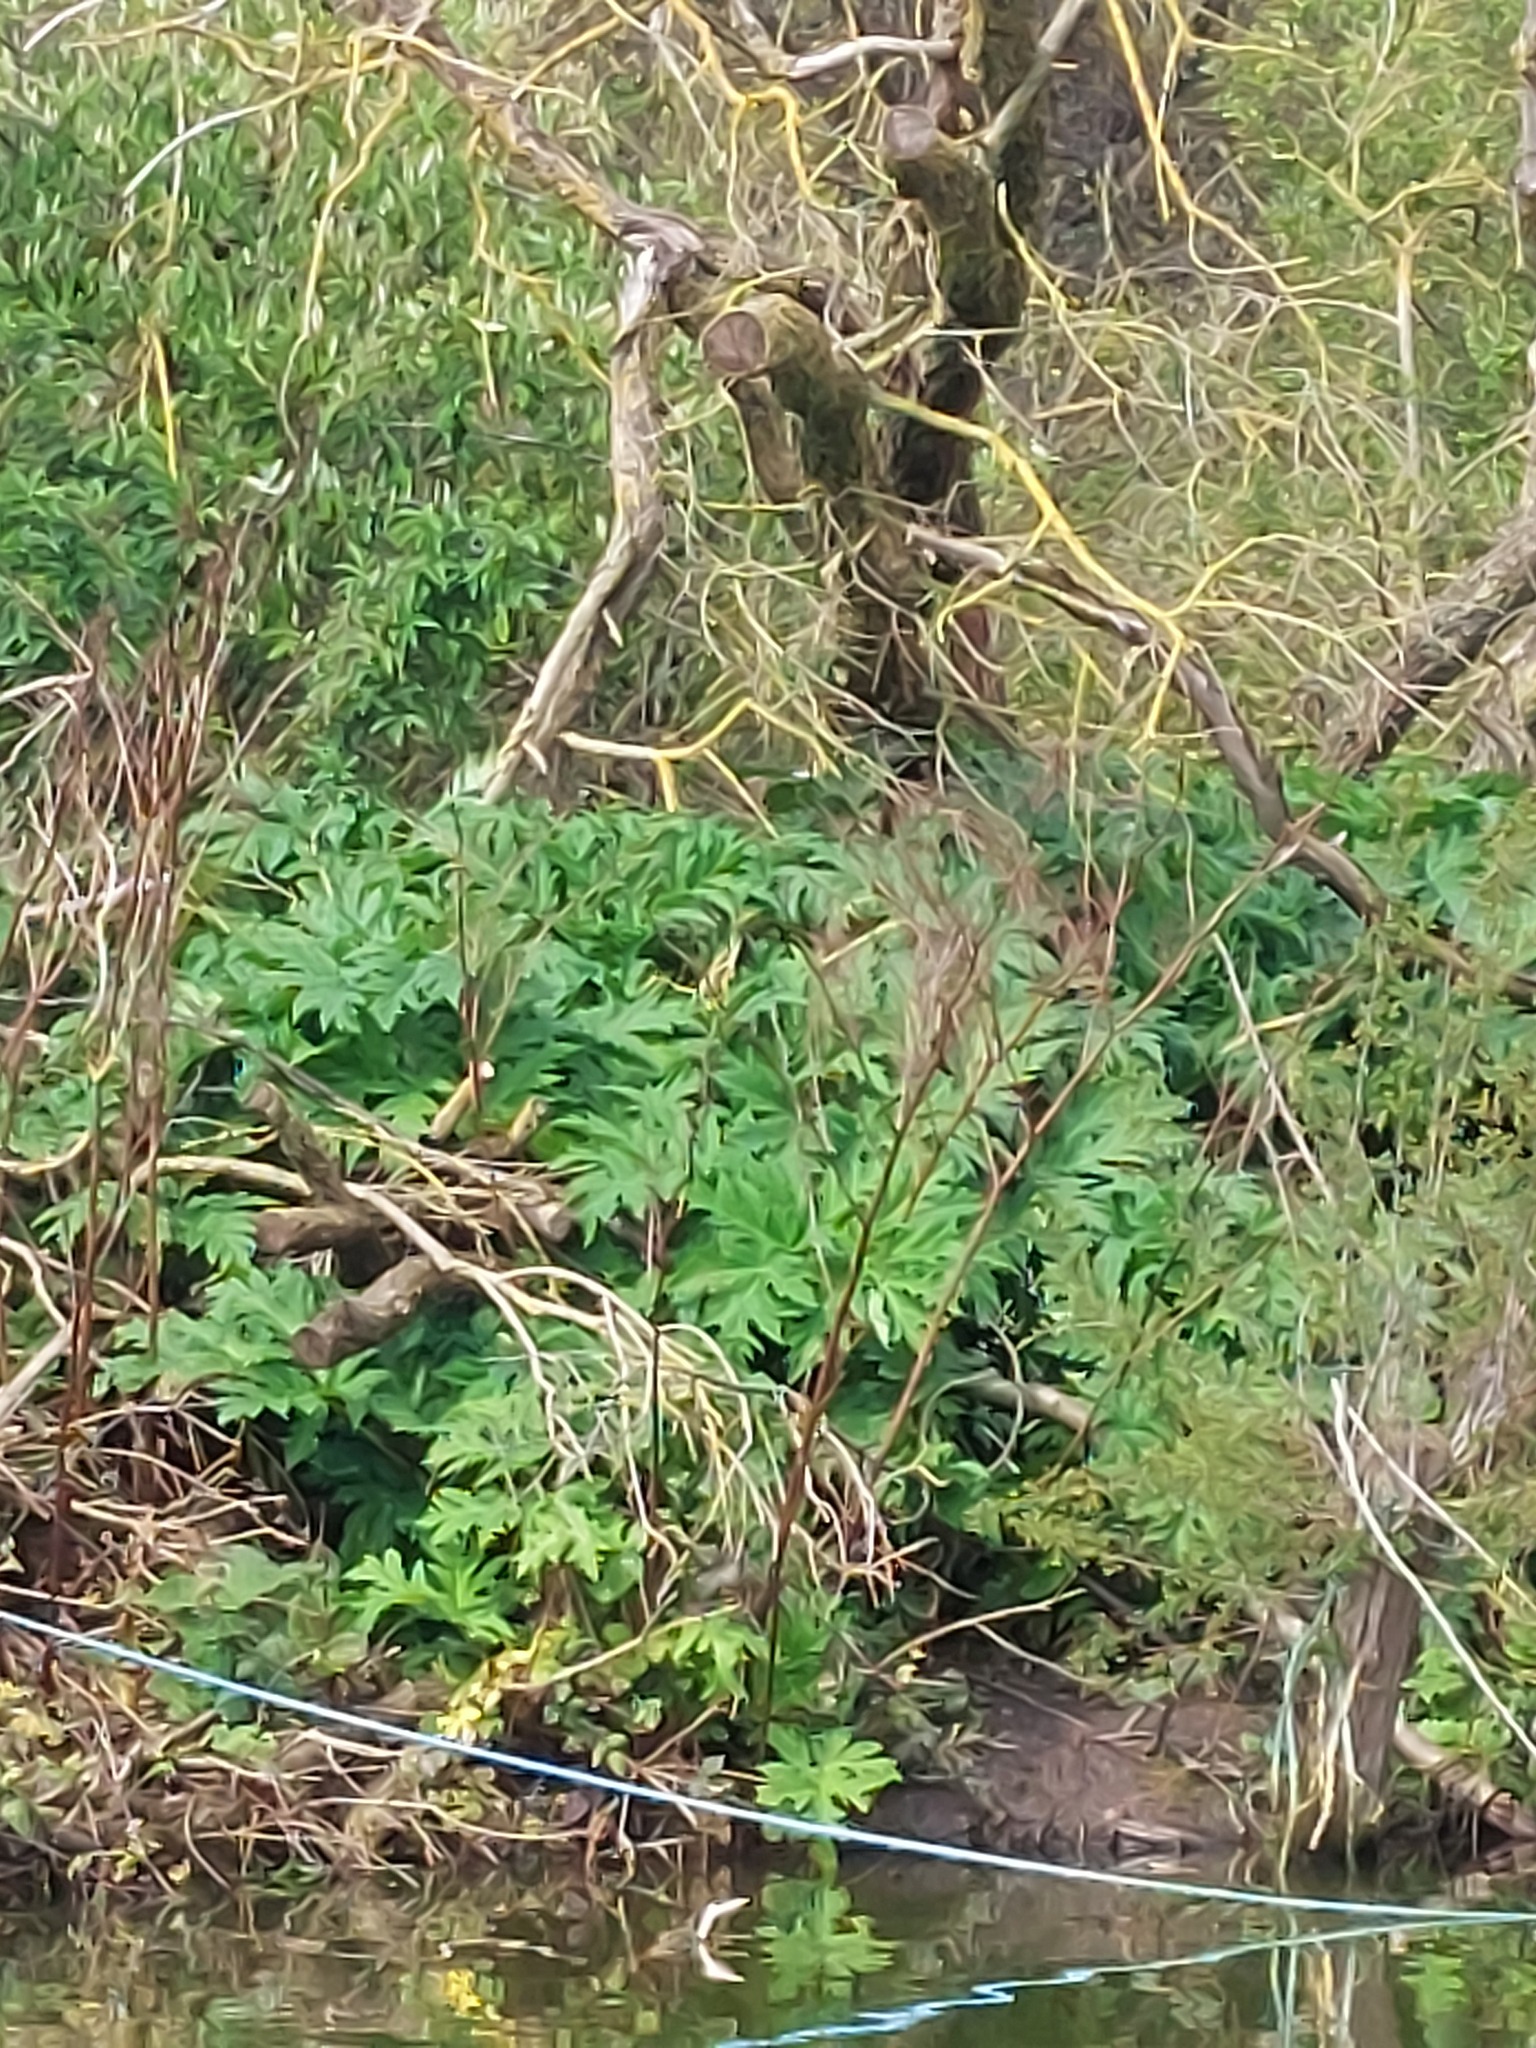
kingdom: Plantae
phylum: Tracheophyta
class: Magnoliopsida
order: Apiales
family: Apiaceae
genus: Heracleum
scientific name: Heracleum mantegazzianum
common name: Giant hogweed
